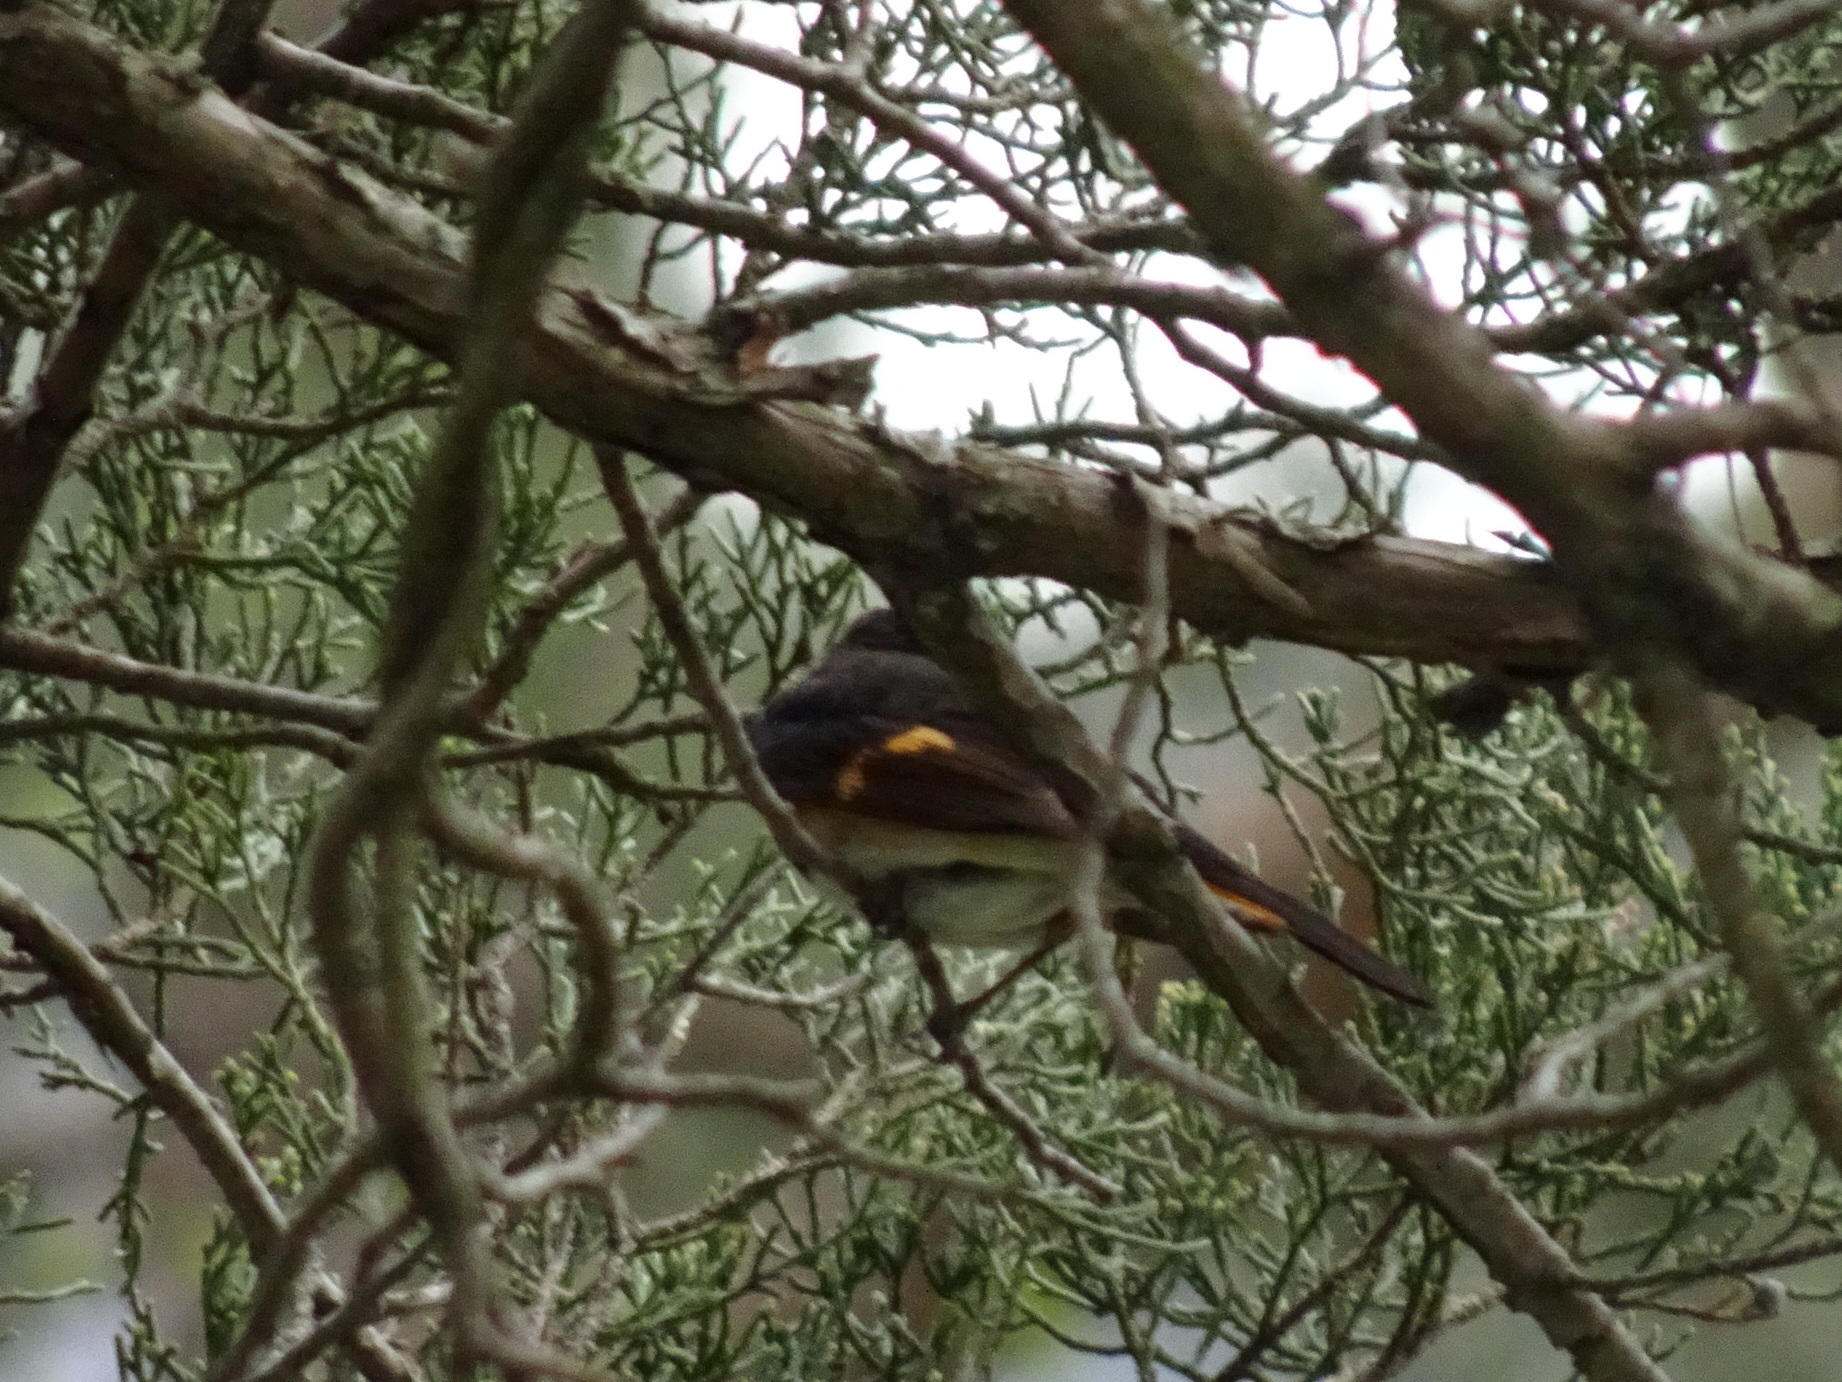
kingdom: Animalia
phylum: Chordata
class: Aves
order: Passeriformes
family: Parulidae
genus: Setophaga
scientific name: Setophaga ruticilla
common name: American redstart
